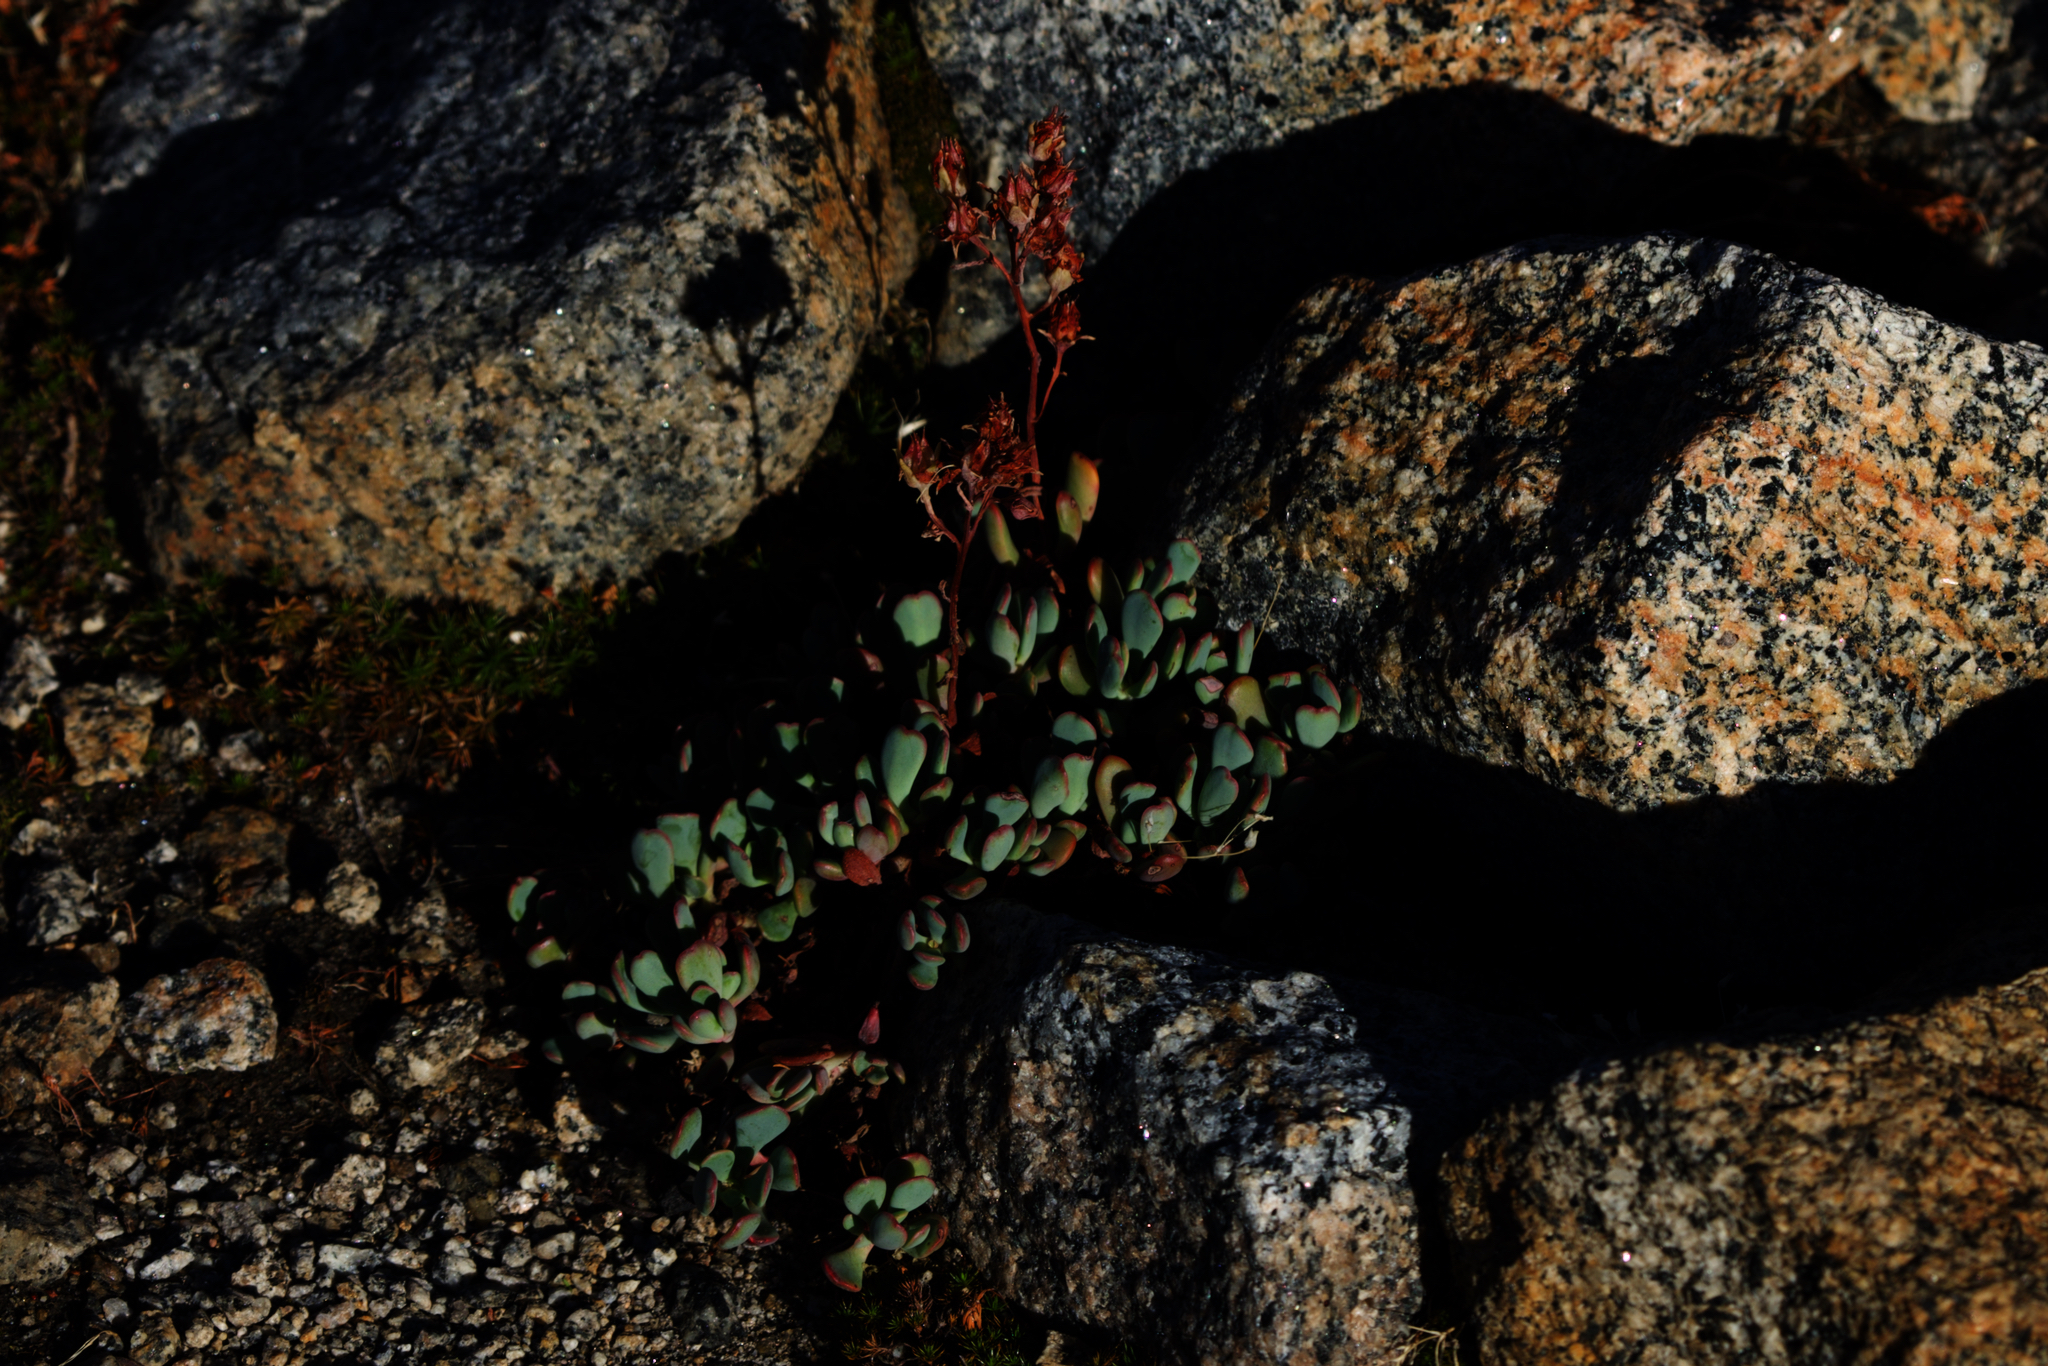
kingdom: Plantae
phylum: Tracheophyta
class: Magnoliopsida
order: Saxifragales
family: Crassulaceae
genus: Sedum
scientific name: Sedum obtusatum
